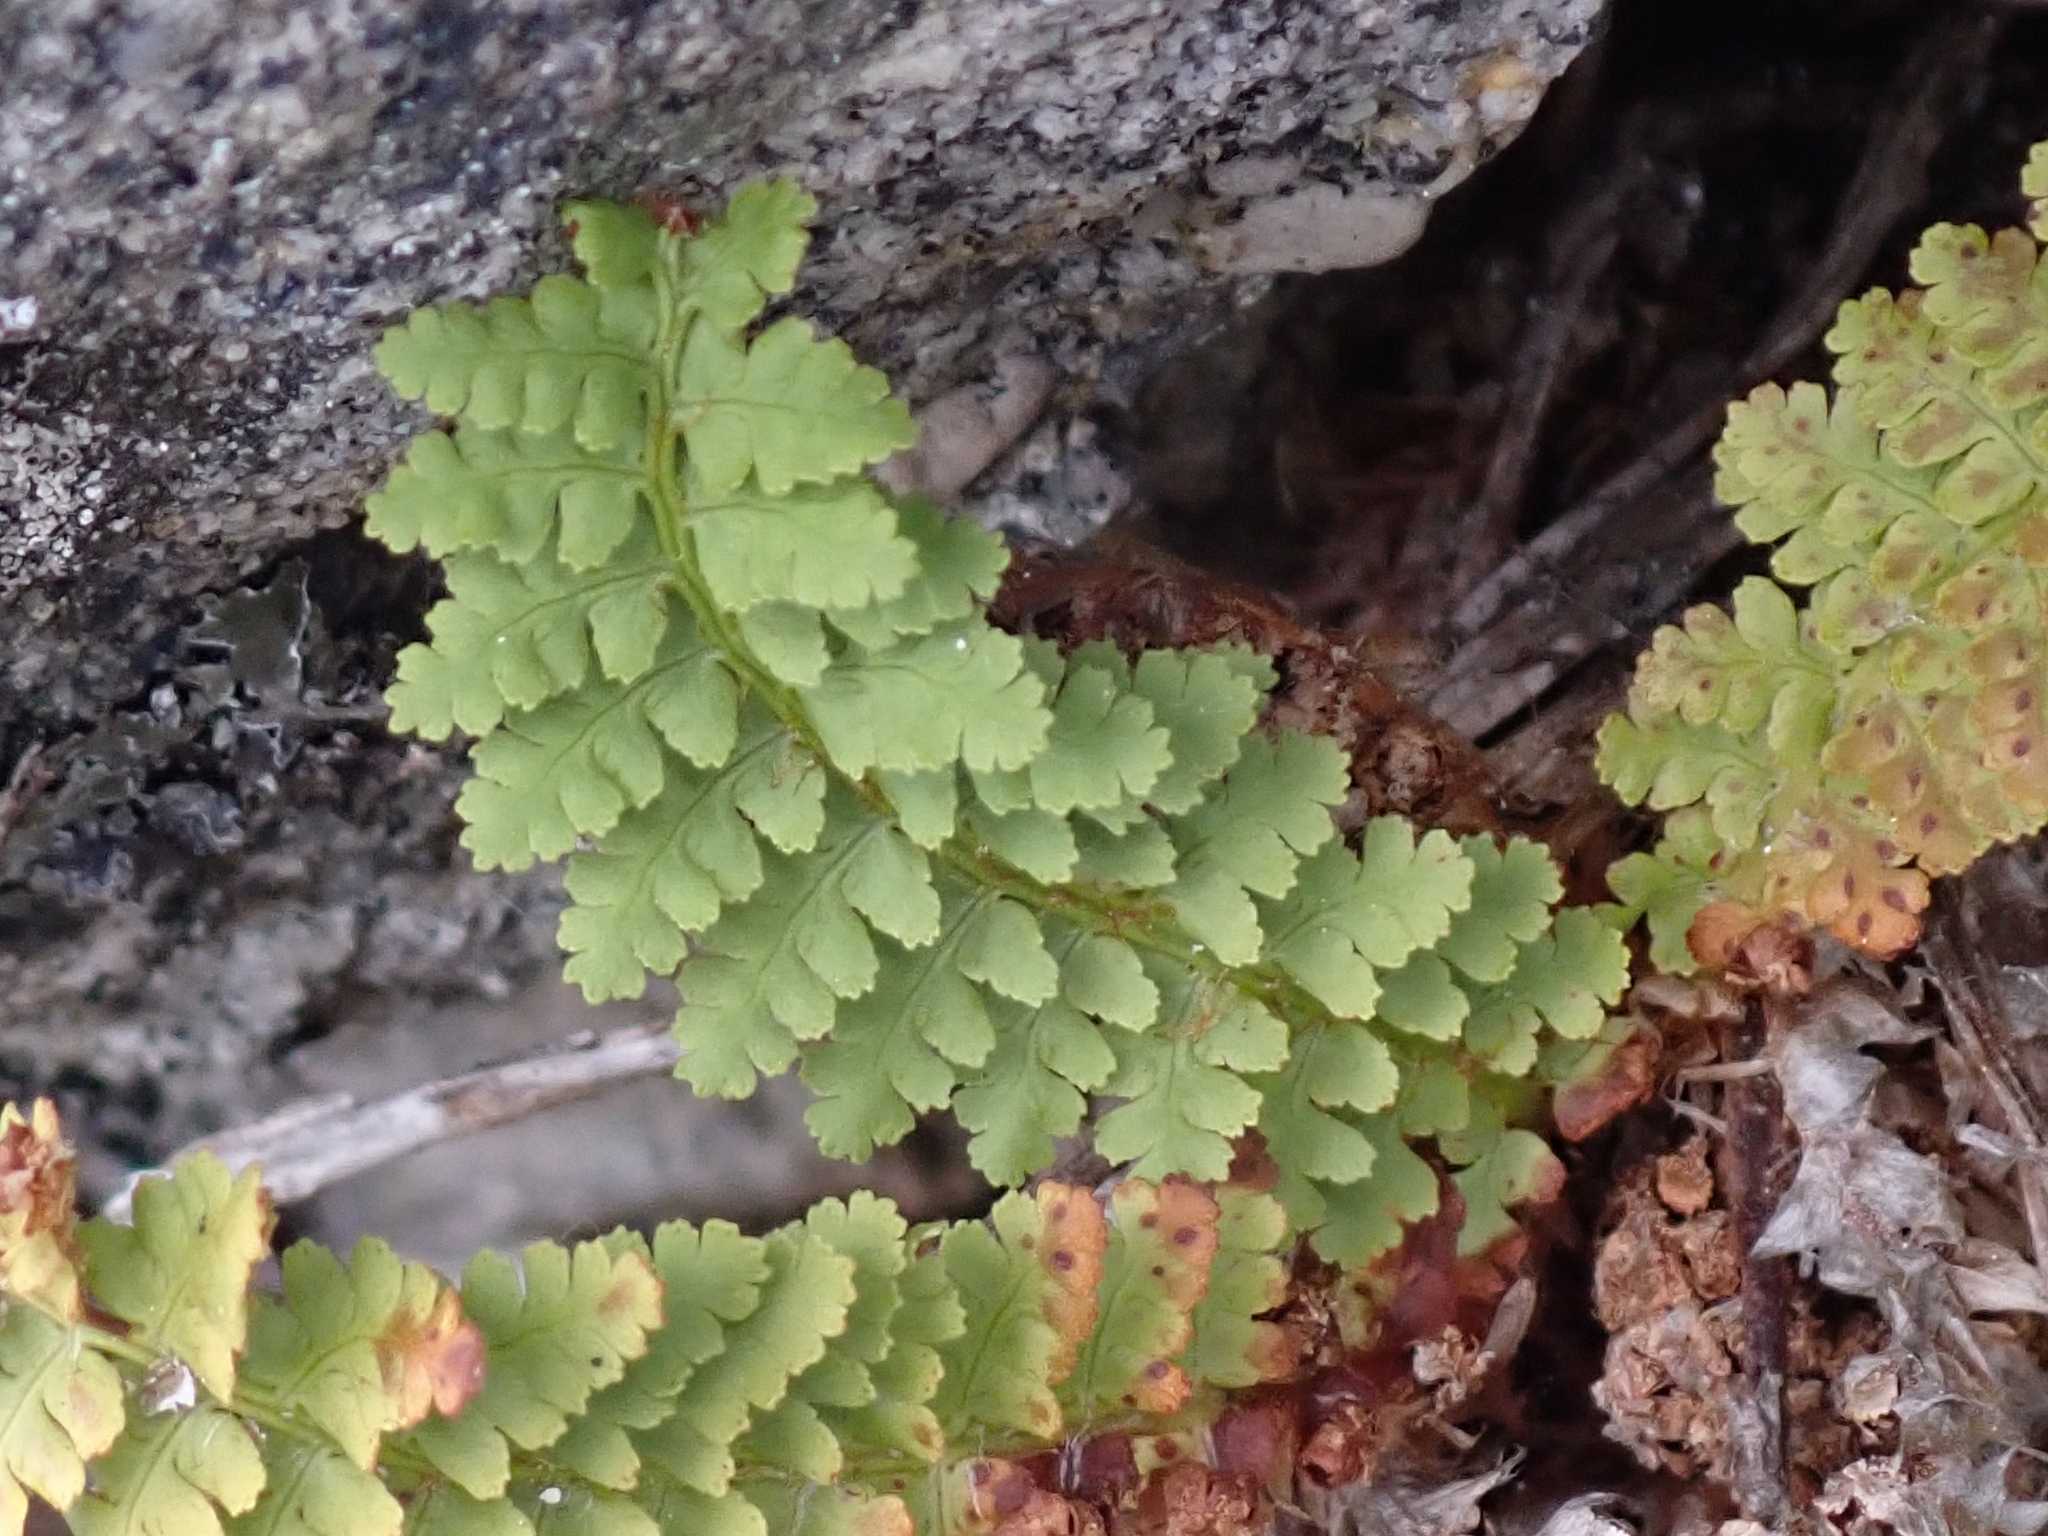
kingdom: Plantae
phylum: Tracheophyta
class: Polypodiopsida
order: Polypodiales
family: Dryopteridaceae
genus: Dryopteris
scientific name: Dryopteris fragrans
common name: Fragrant wood fern
